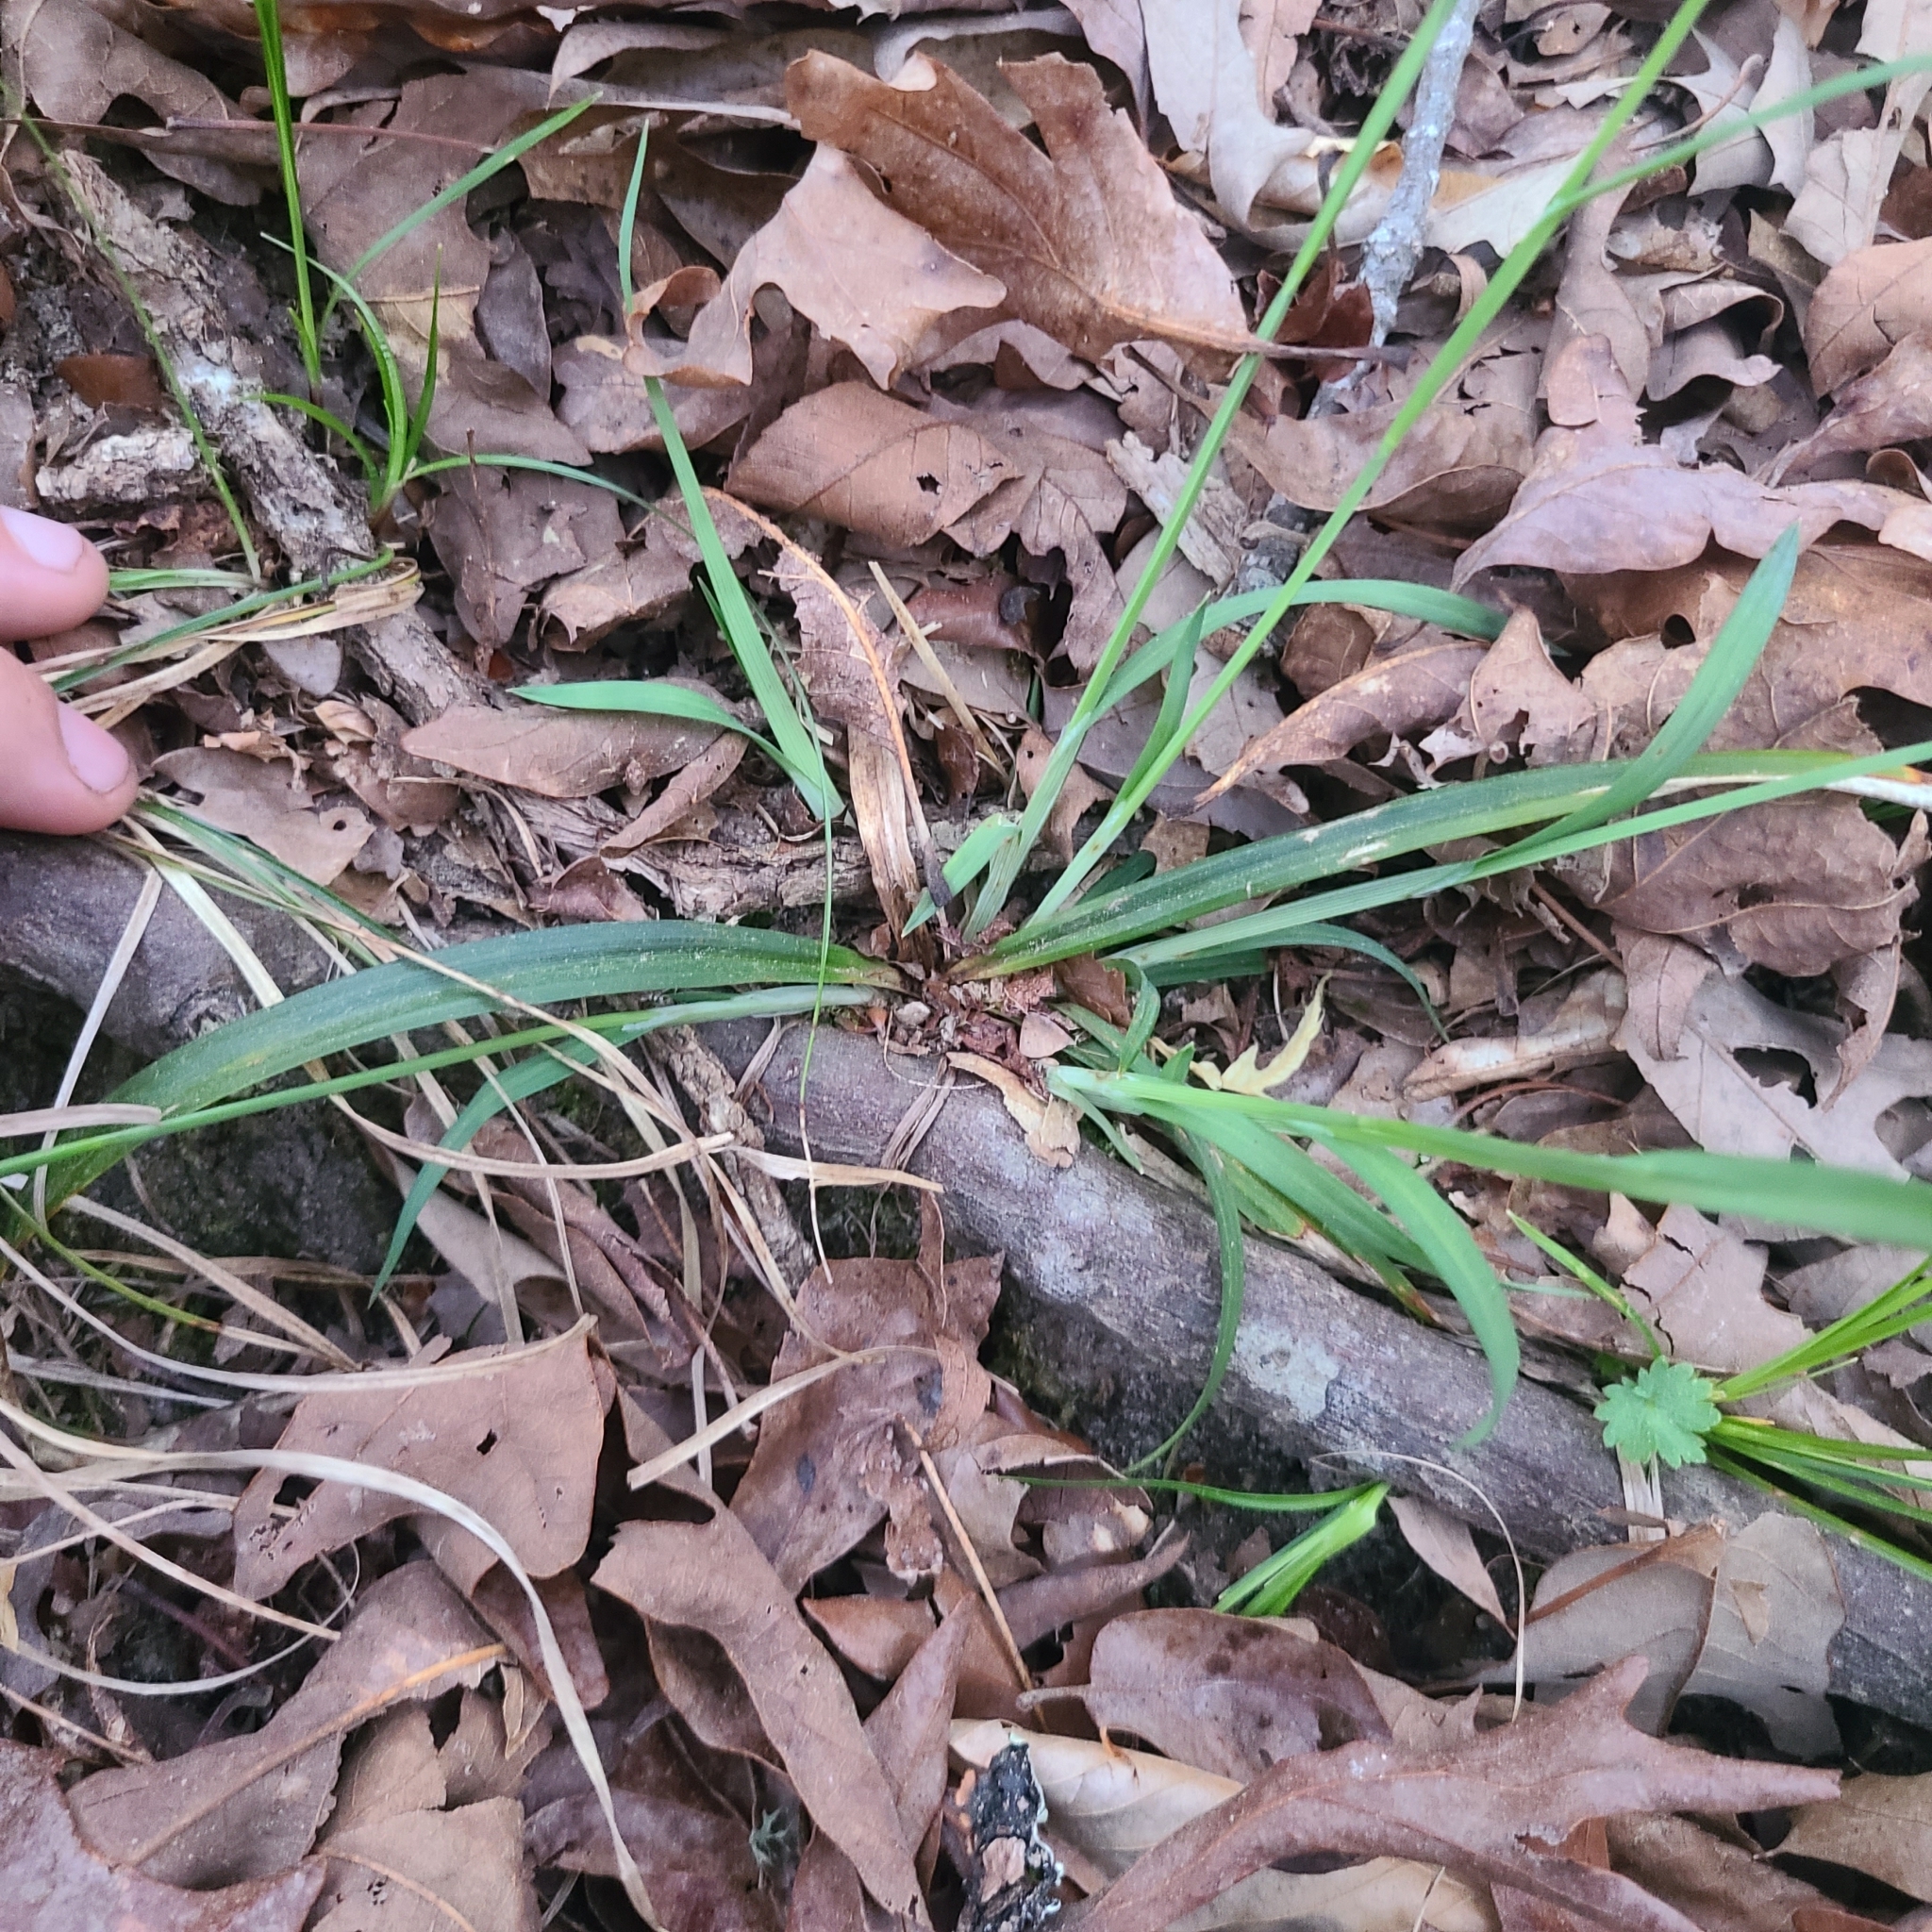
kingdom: Plantae
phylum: Tracheophyta
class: Liliopsida
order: Poales
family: Cyperaceae
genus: Carex
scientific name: Carex striatula
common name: Lined sedge
